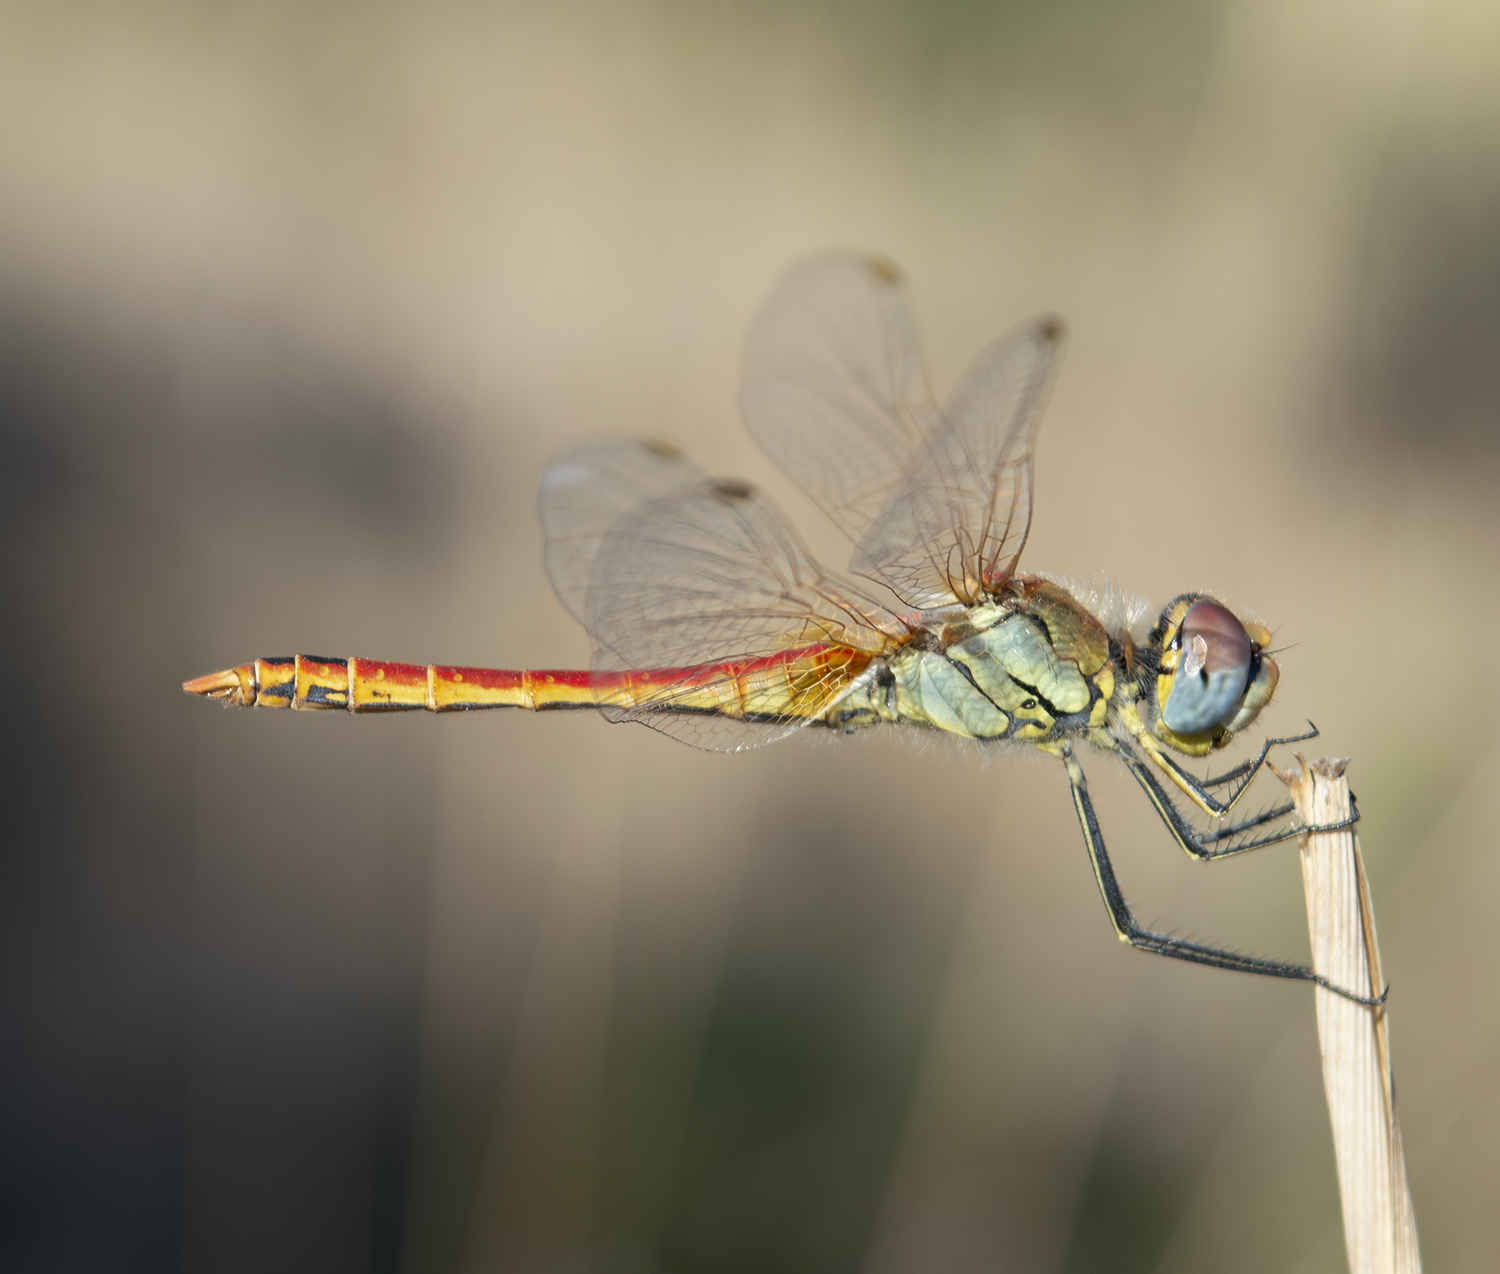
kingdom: Animalia
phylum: Arthropoda
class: Insecta
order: Odonata
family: Libellulidae
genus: Sympetrum
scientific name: Sympetrum fonscolombii
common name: Red-veined darter
